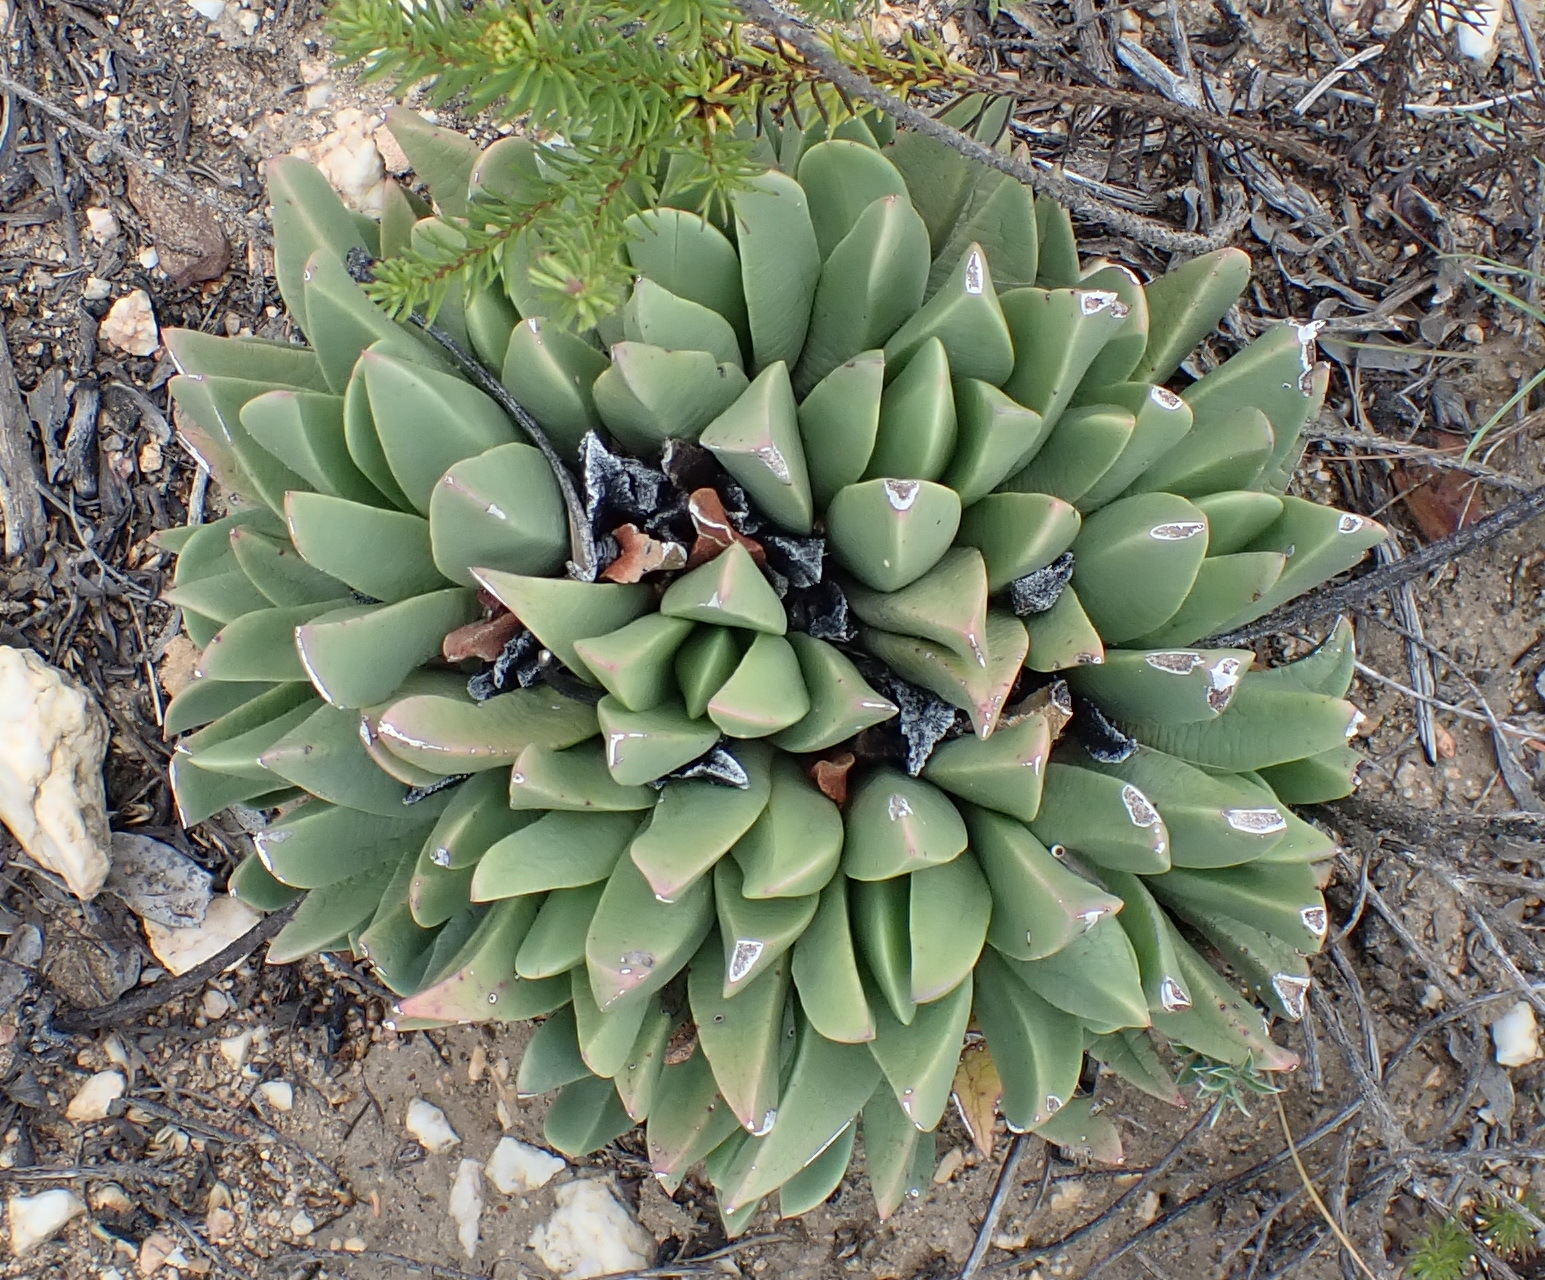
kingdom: Plantae
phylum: Tracheophyta
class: Magnoliopsida
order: Caryophyllales
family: Aizoaceae
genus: Machairophyllum
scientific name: Machairophyllum albidum
